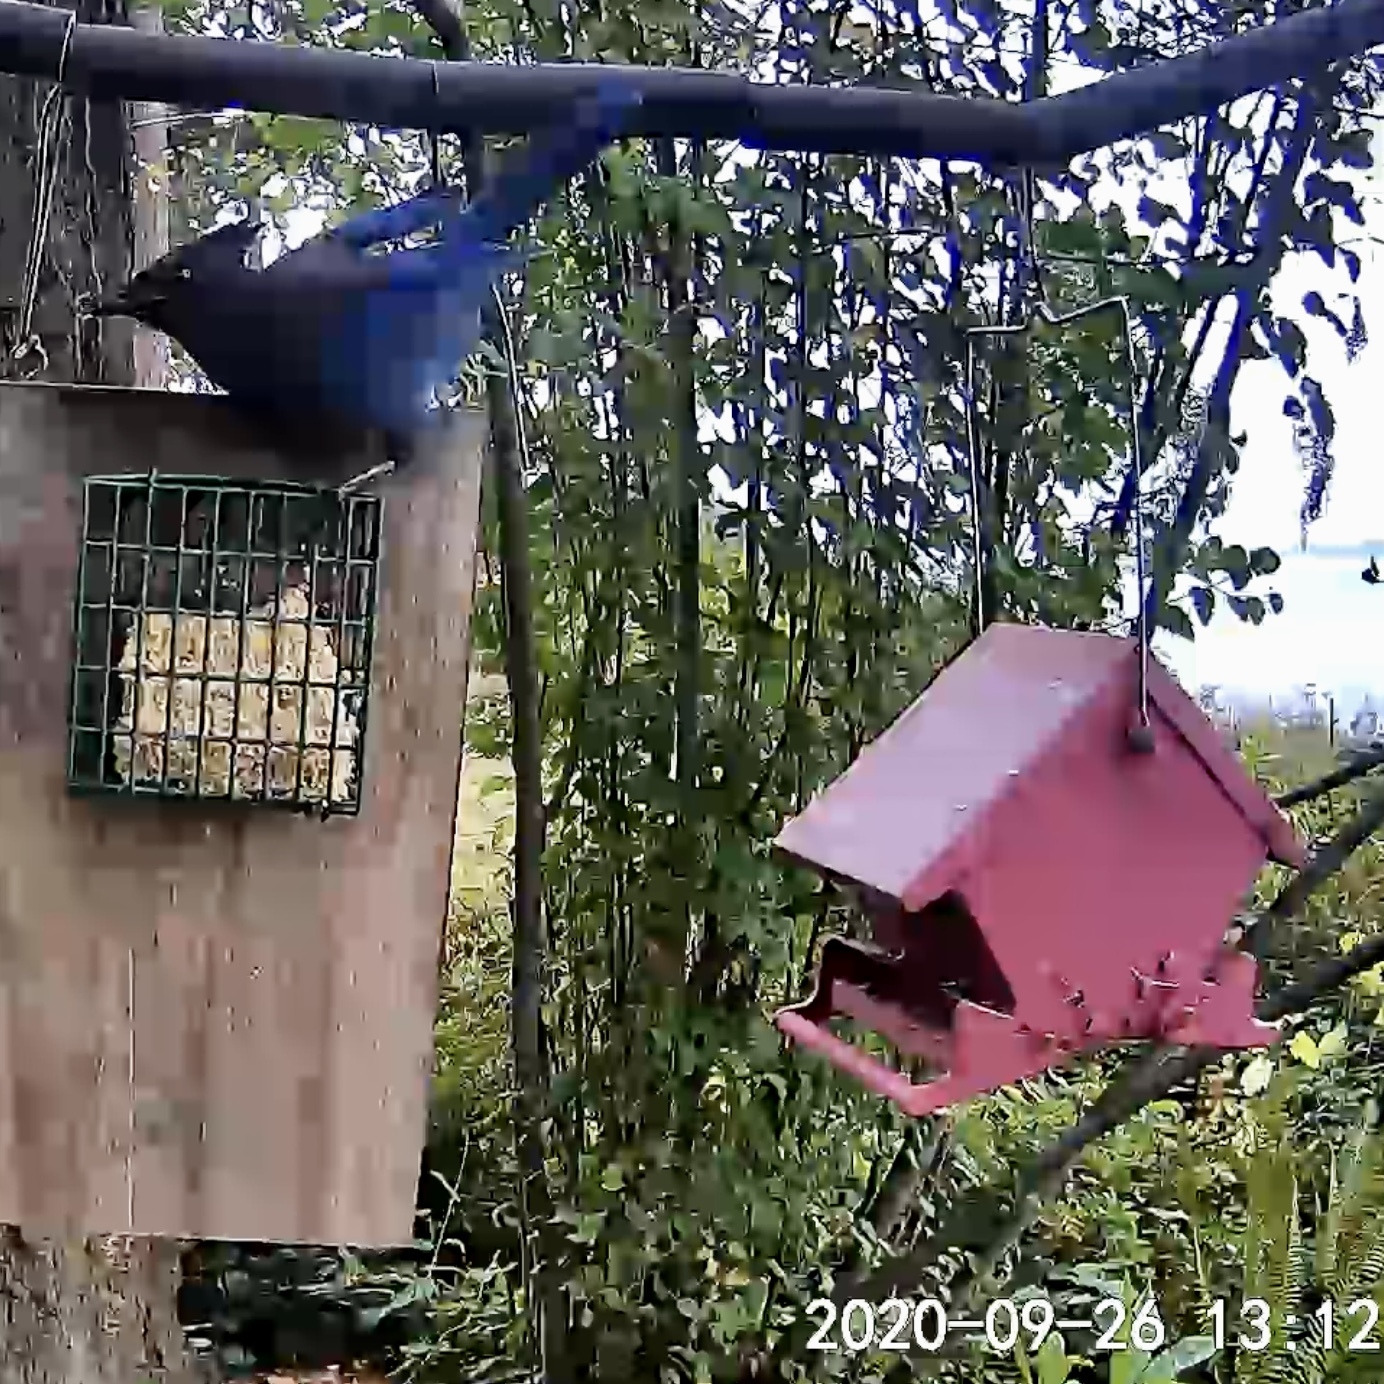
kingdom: Animalia
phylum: Chordata
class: Aves
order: Passeriformes
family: Corvidae
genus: Cyanocitta
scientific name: Cyanocitta stelleri
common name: Steller's jay
